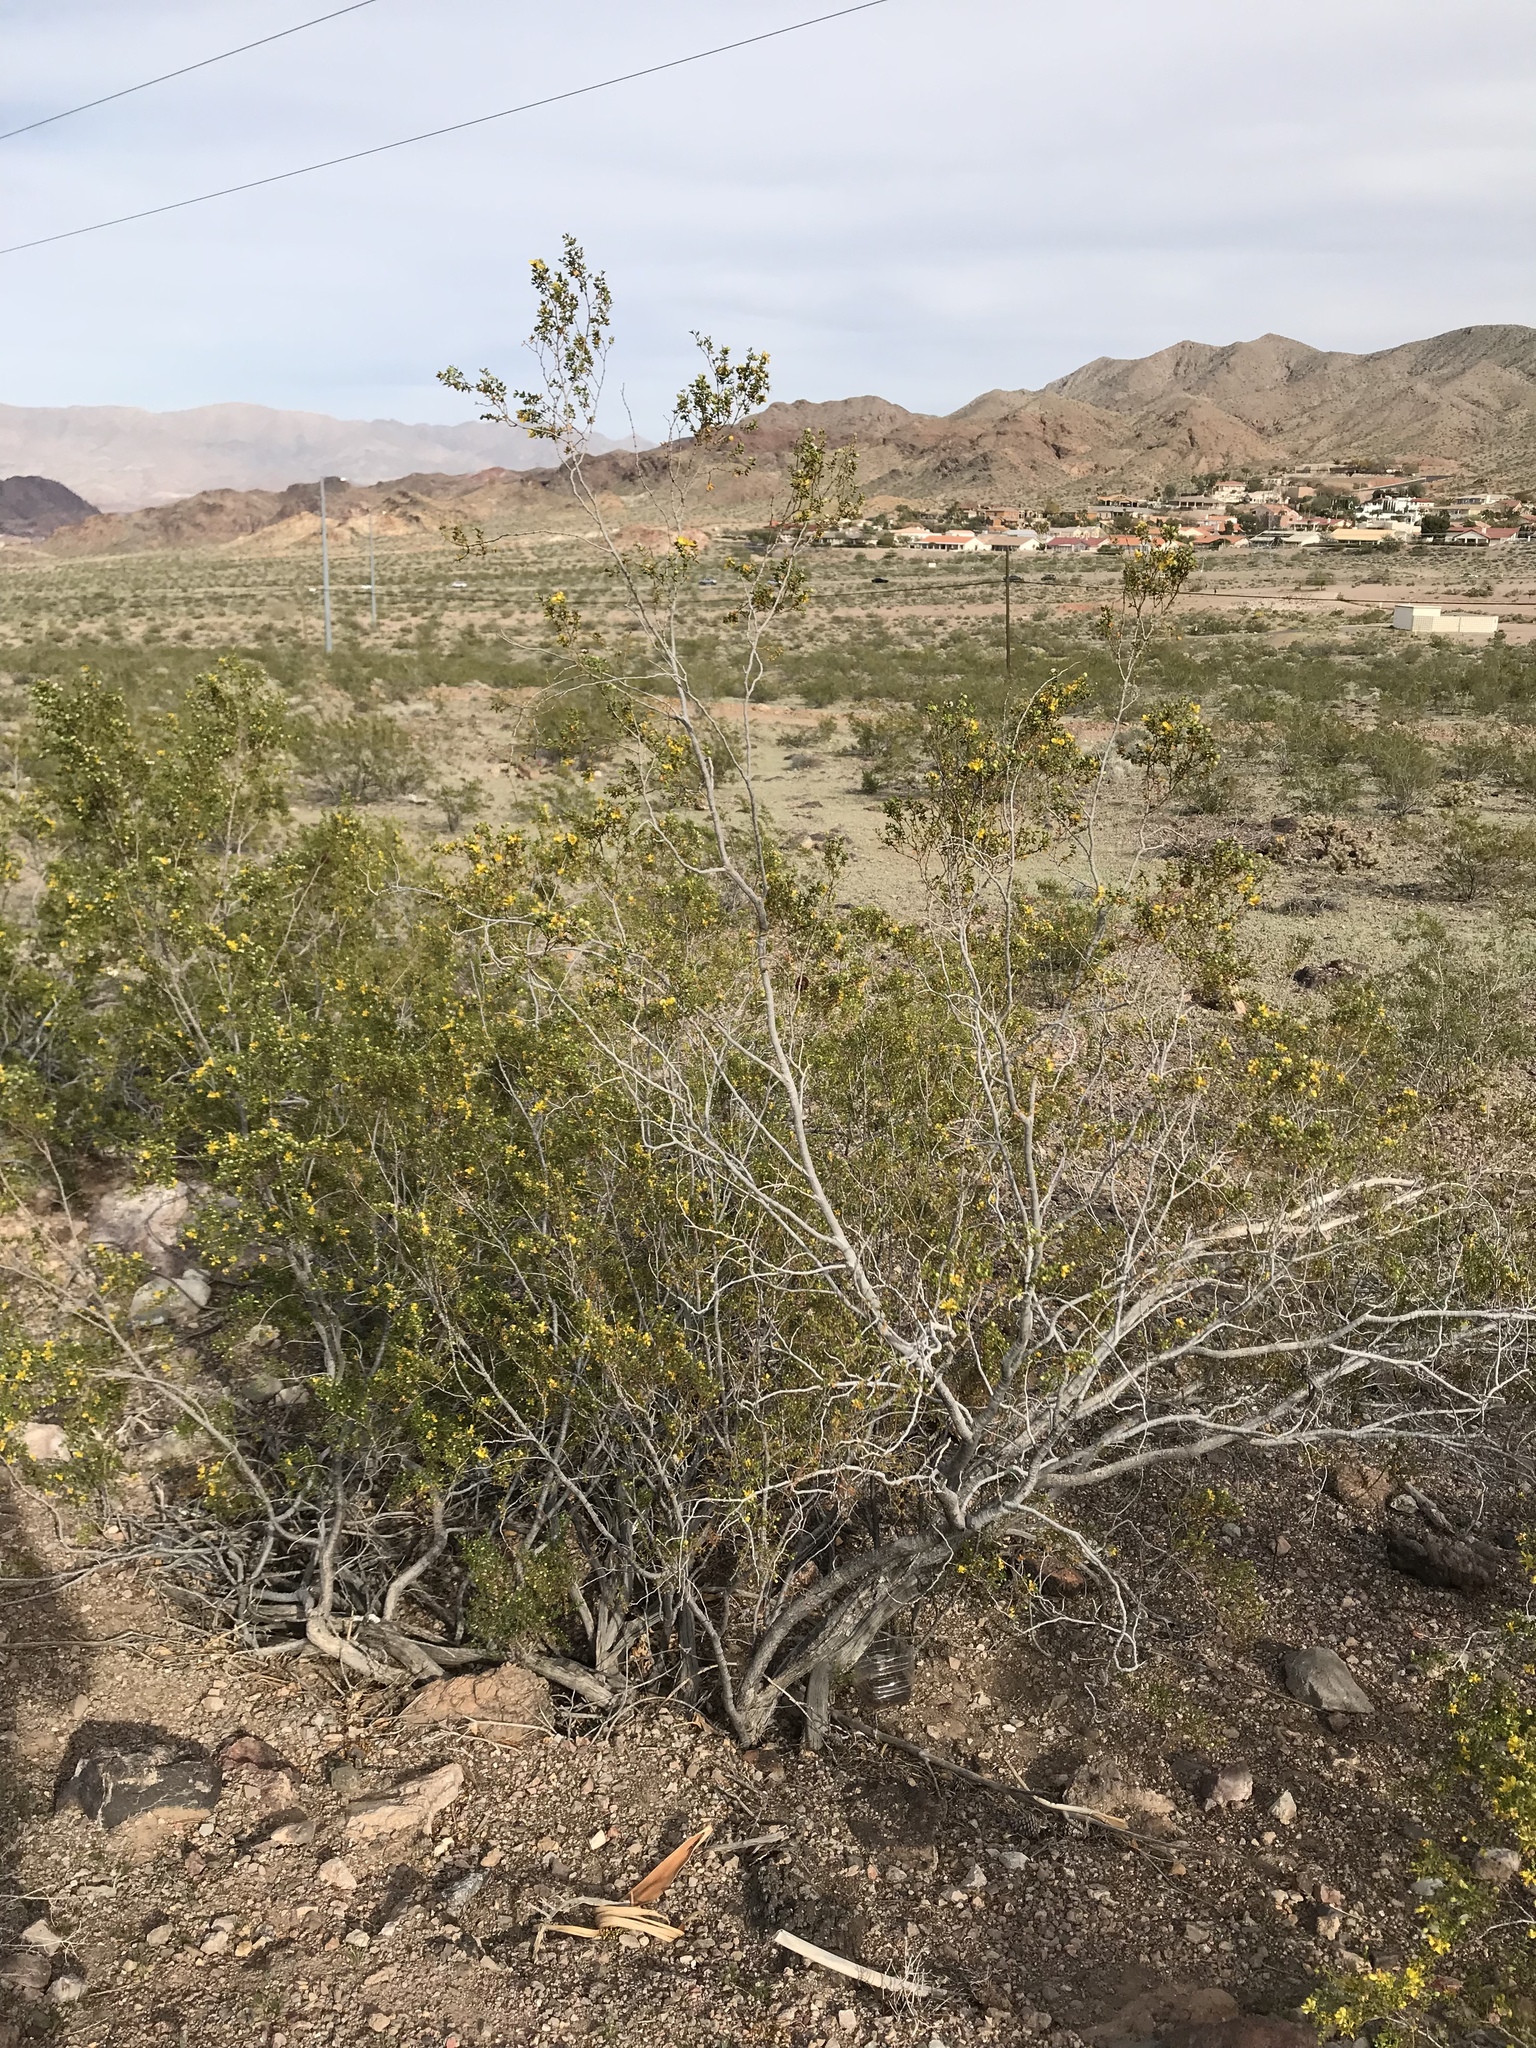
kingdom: Plantae
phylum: Tracheophyta
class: Magnoliopsida
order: Zygophyllales
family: Zygophyllaceae
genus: Larrea
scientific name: Larrea tridentata
